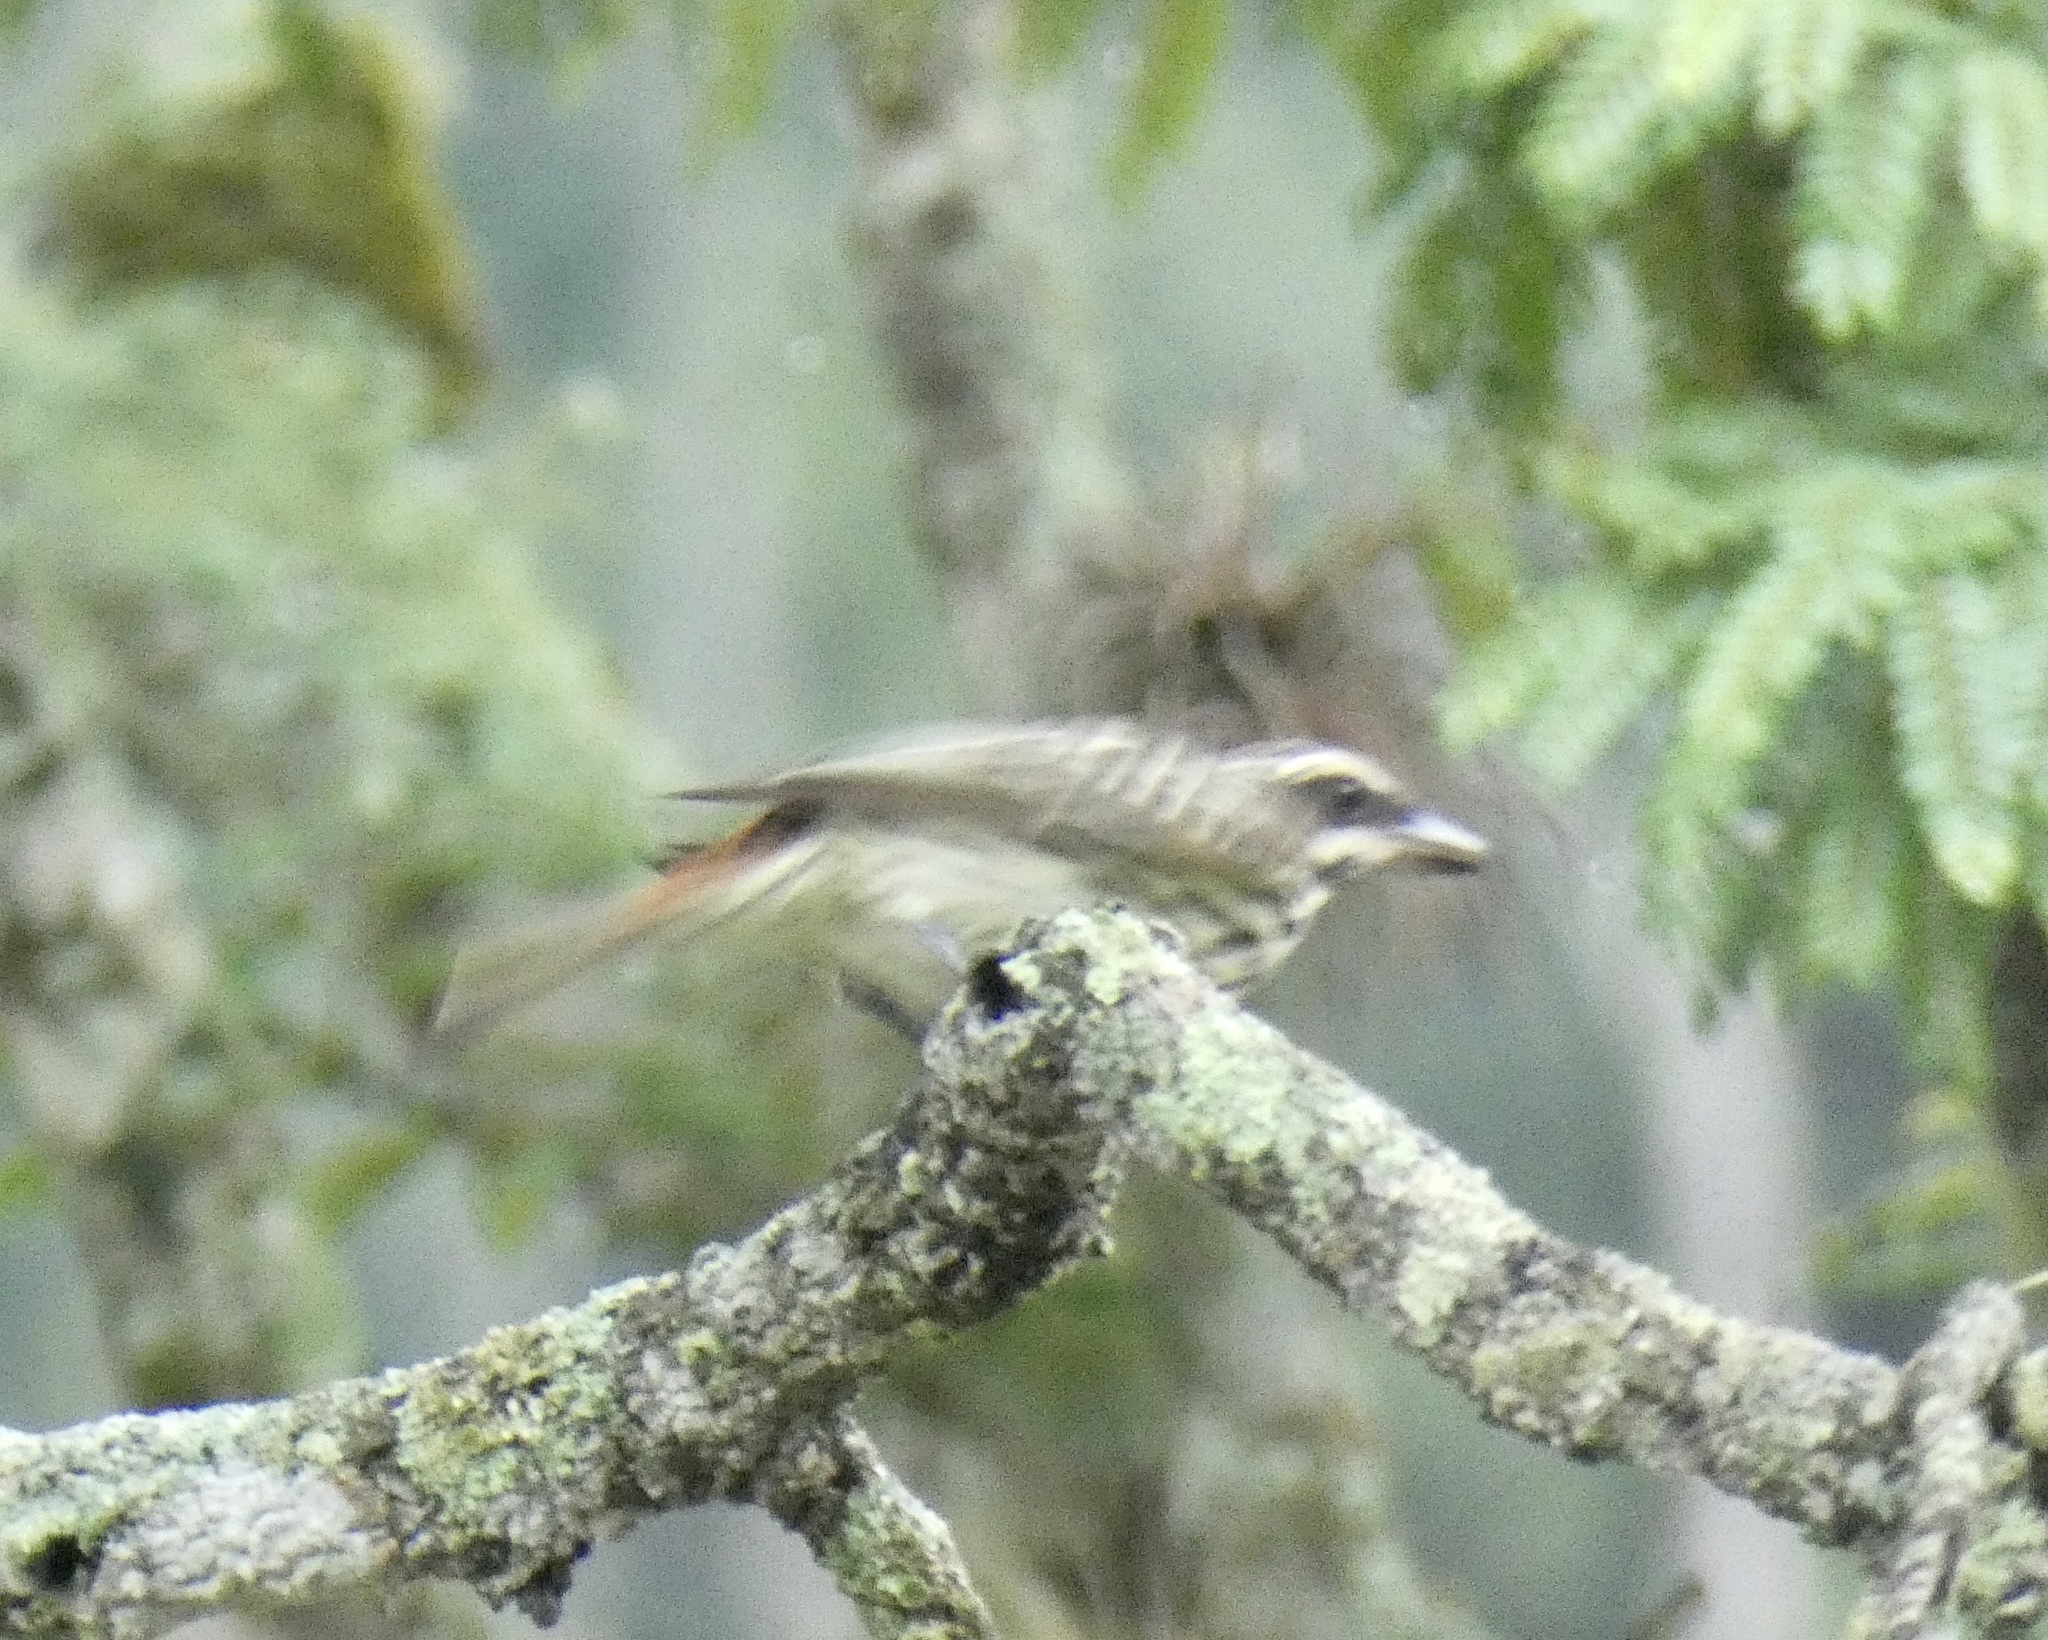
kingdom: Animalia
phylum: Chordata
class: Aves
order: Passeriformes
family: Tyrannidae
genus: Myiodynastes
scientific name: Myiodynastes maculatus
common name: Streaked flycatcher
